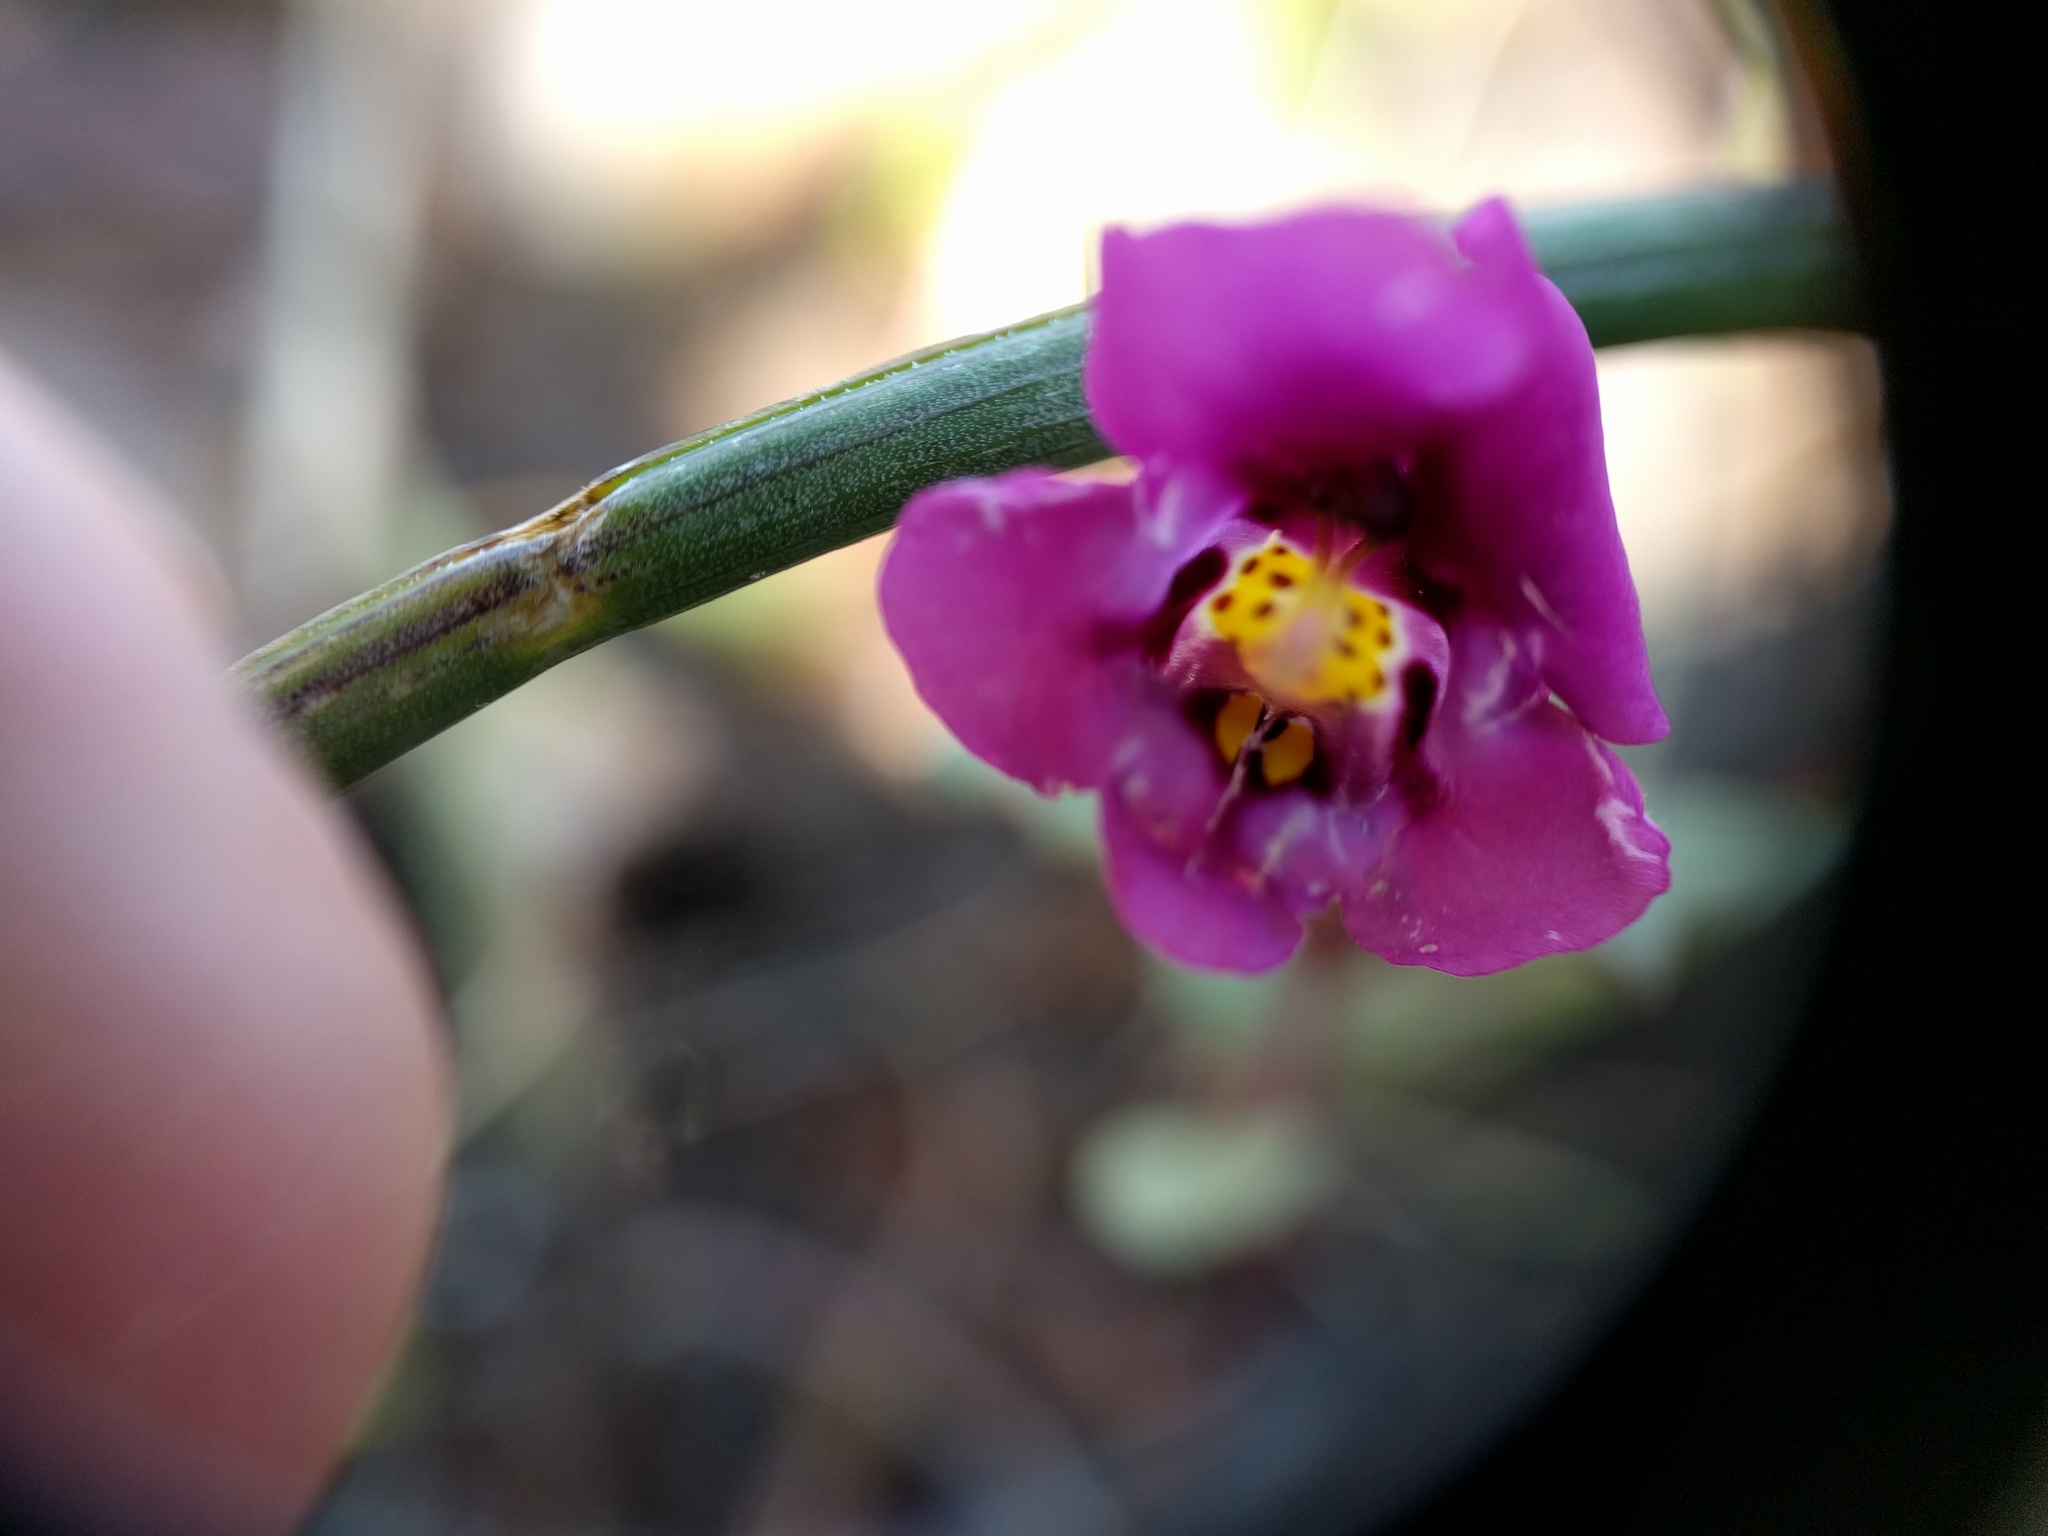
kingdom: Plantae
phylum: Tracheophyta
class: Magnoliopsida
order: Lamiales
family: Phrymaceae
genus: Diplacus
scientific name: Diplacus kelloggii
